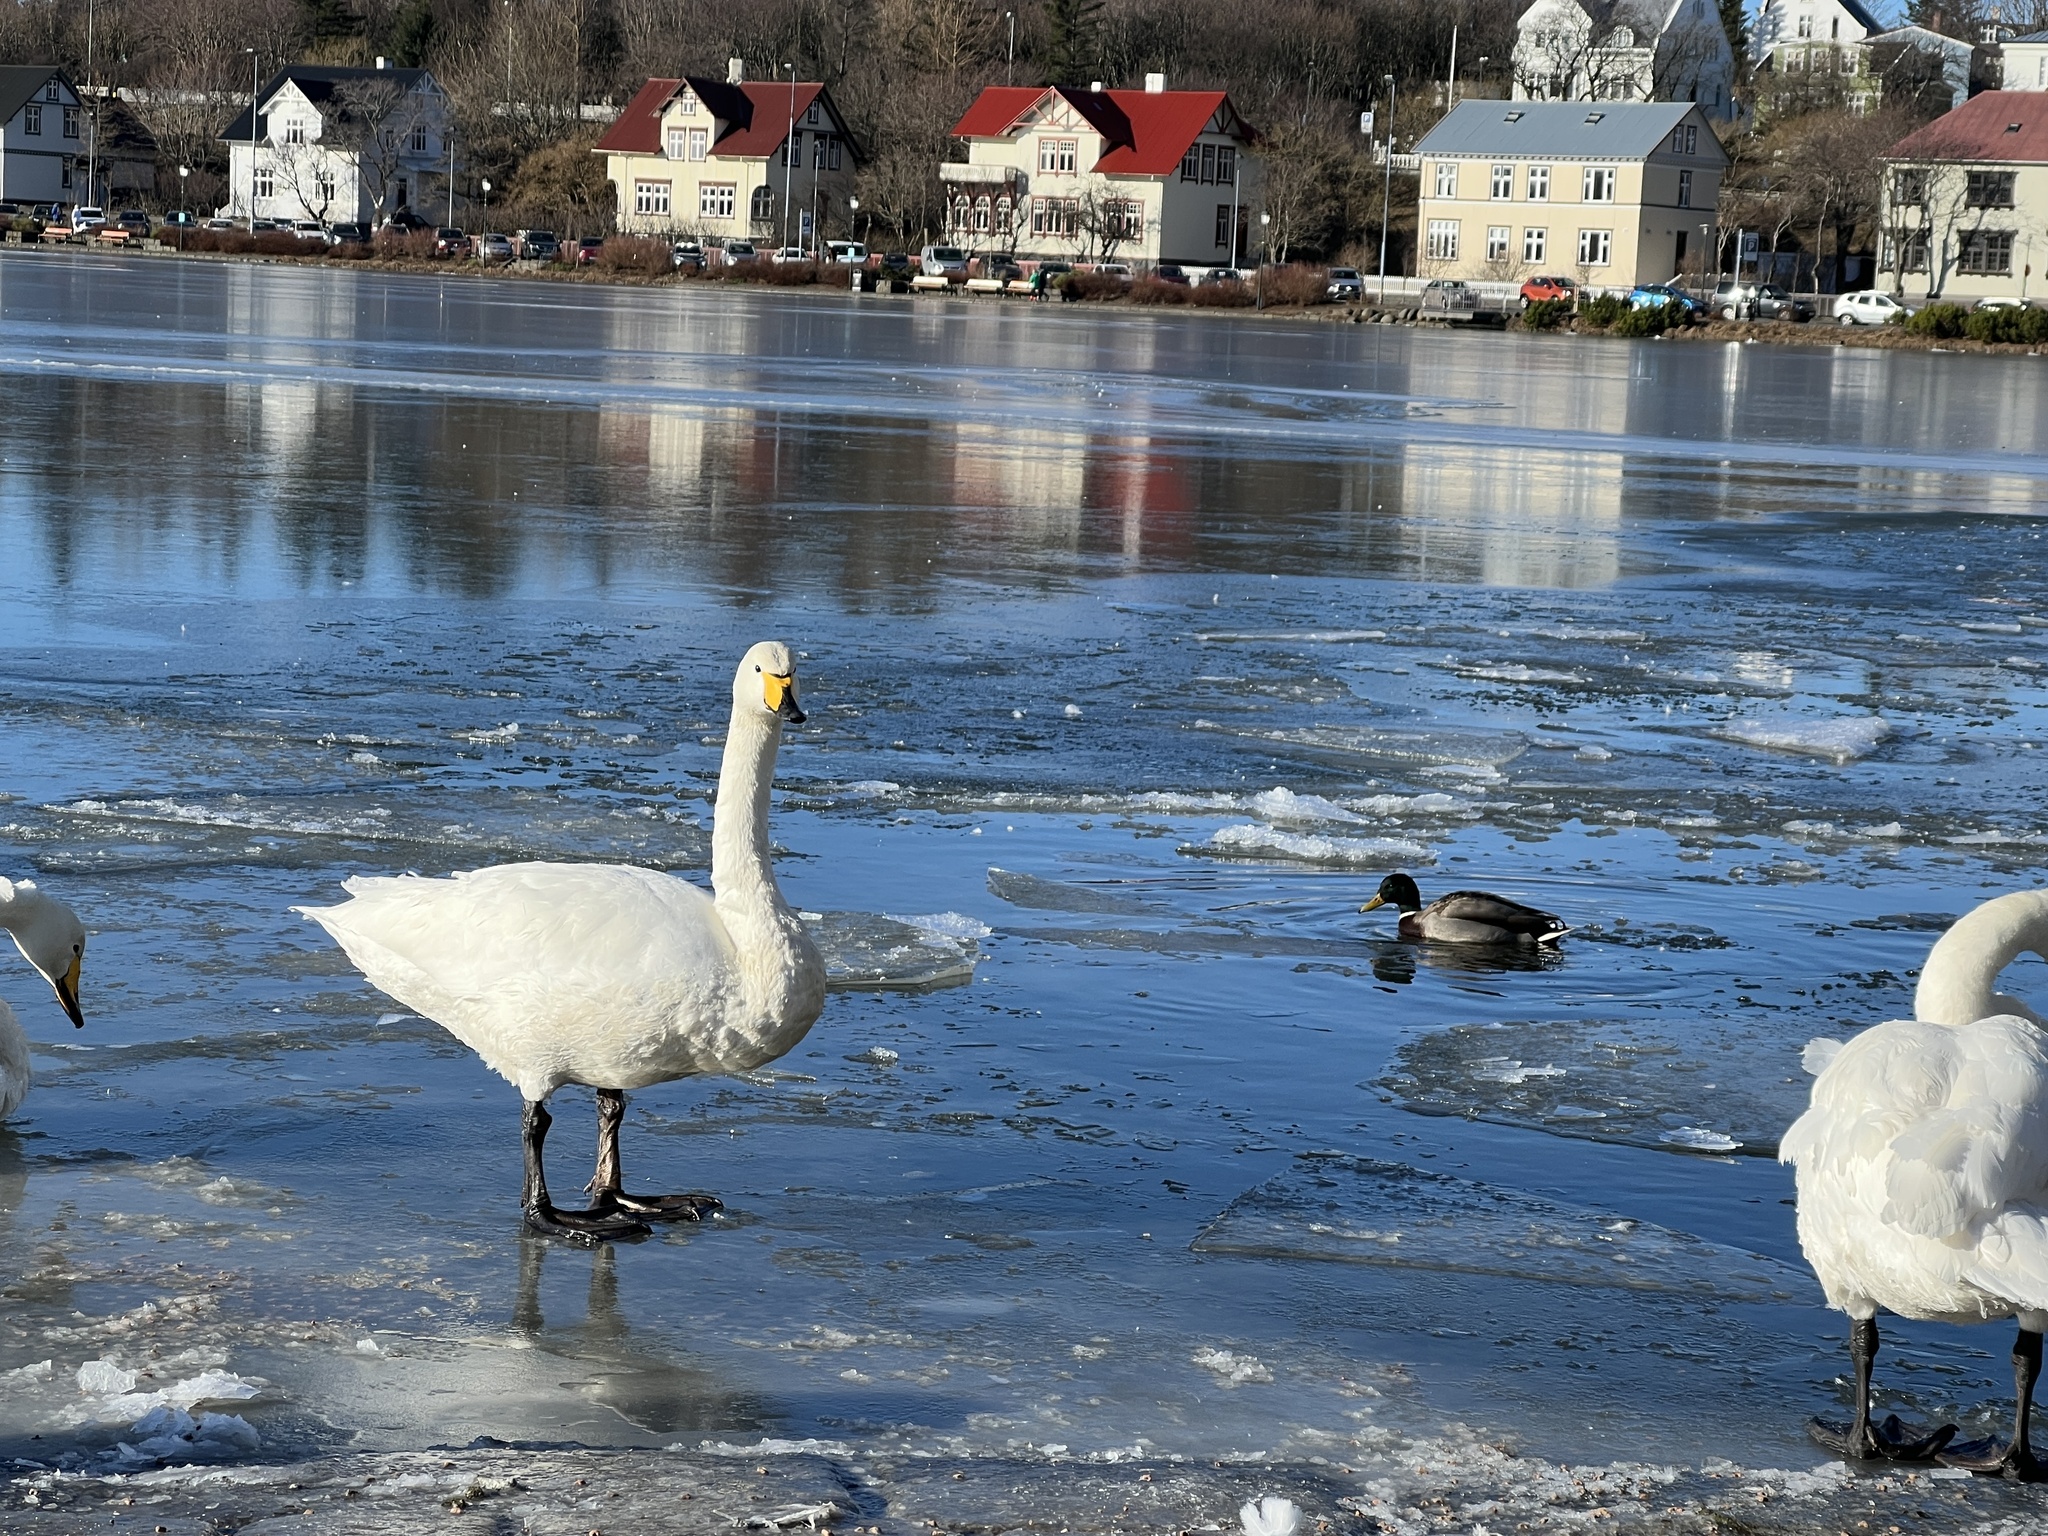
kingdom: Animalia
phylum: Chordata
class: Aves
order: Anseriformes
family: Anatidae
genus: Cygnus
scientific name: Cygnus cygnus
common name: Whooper swan
